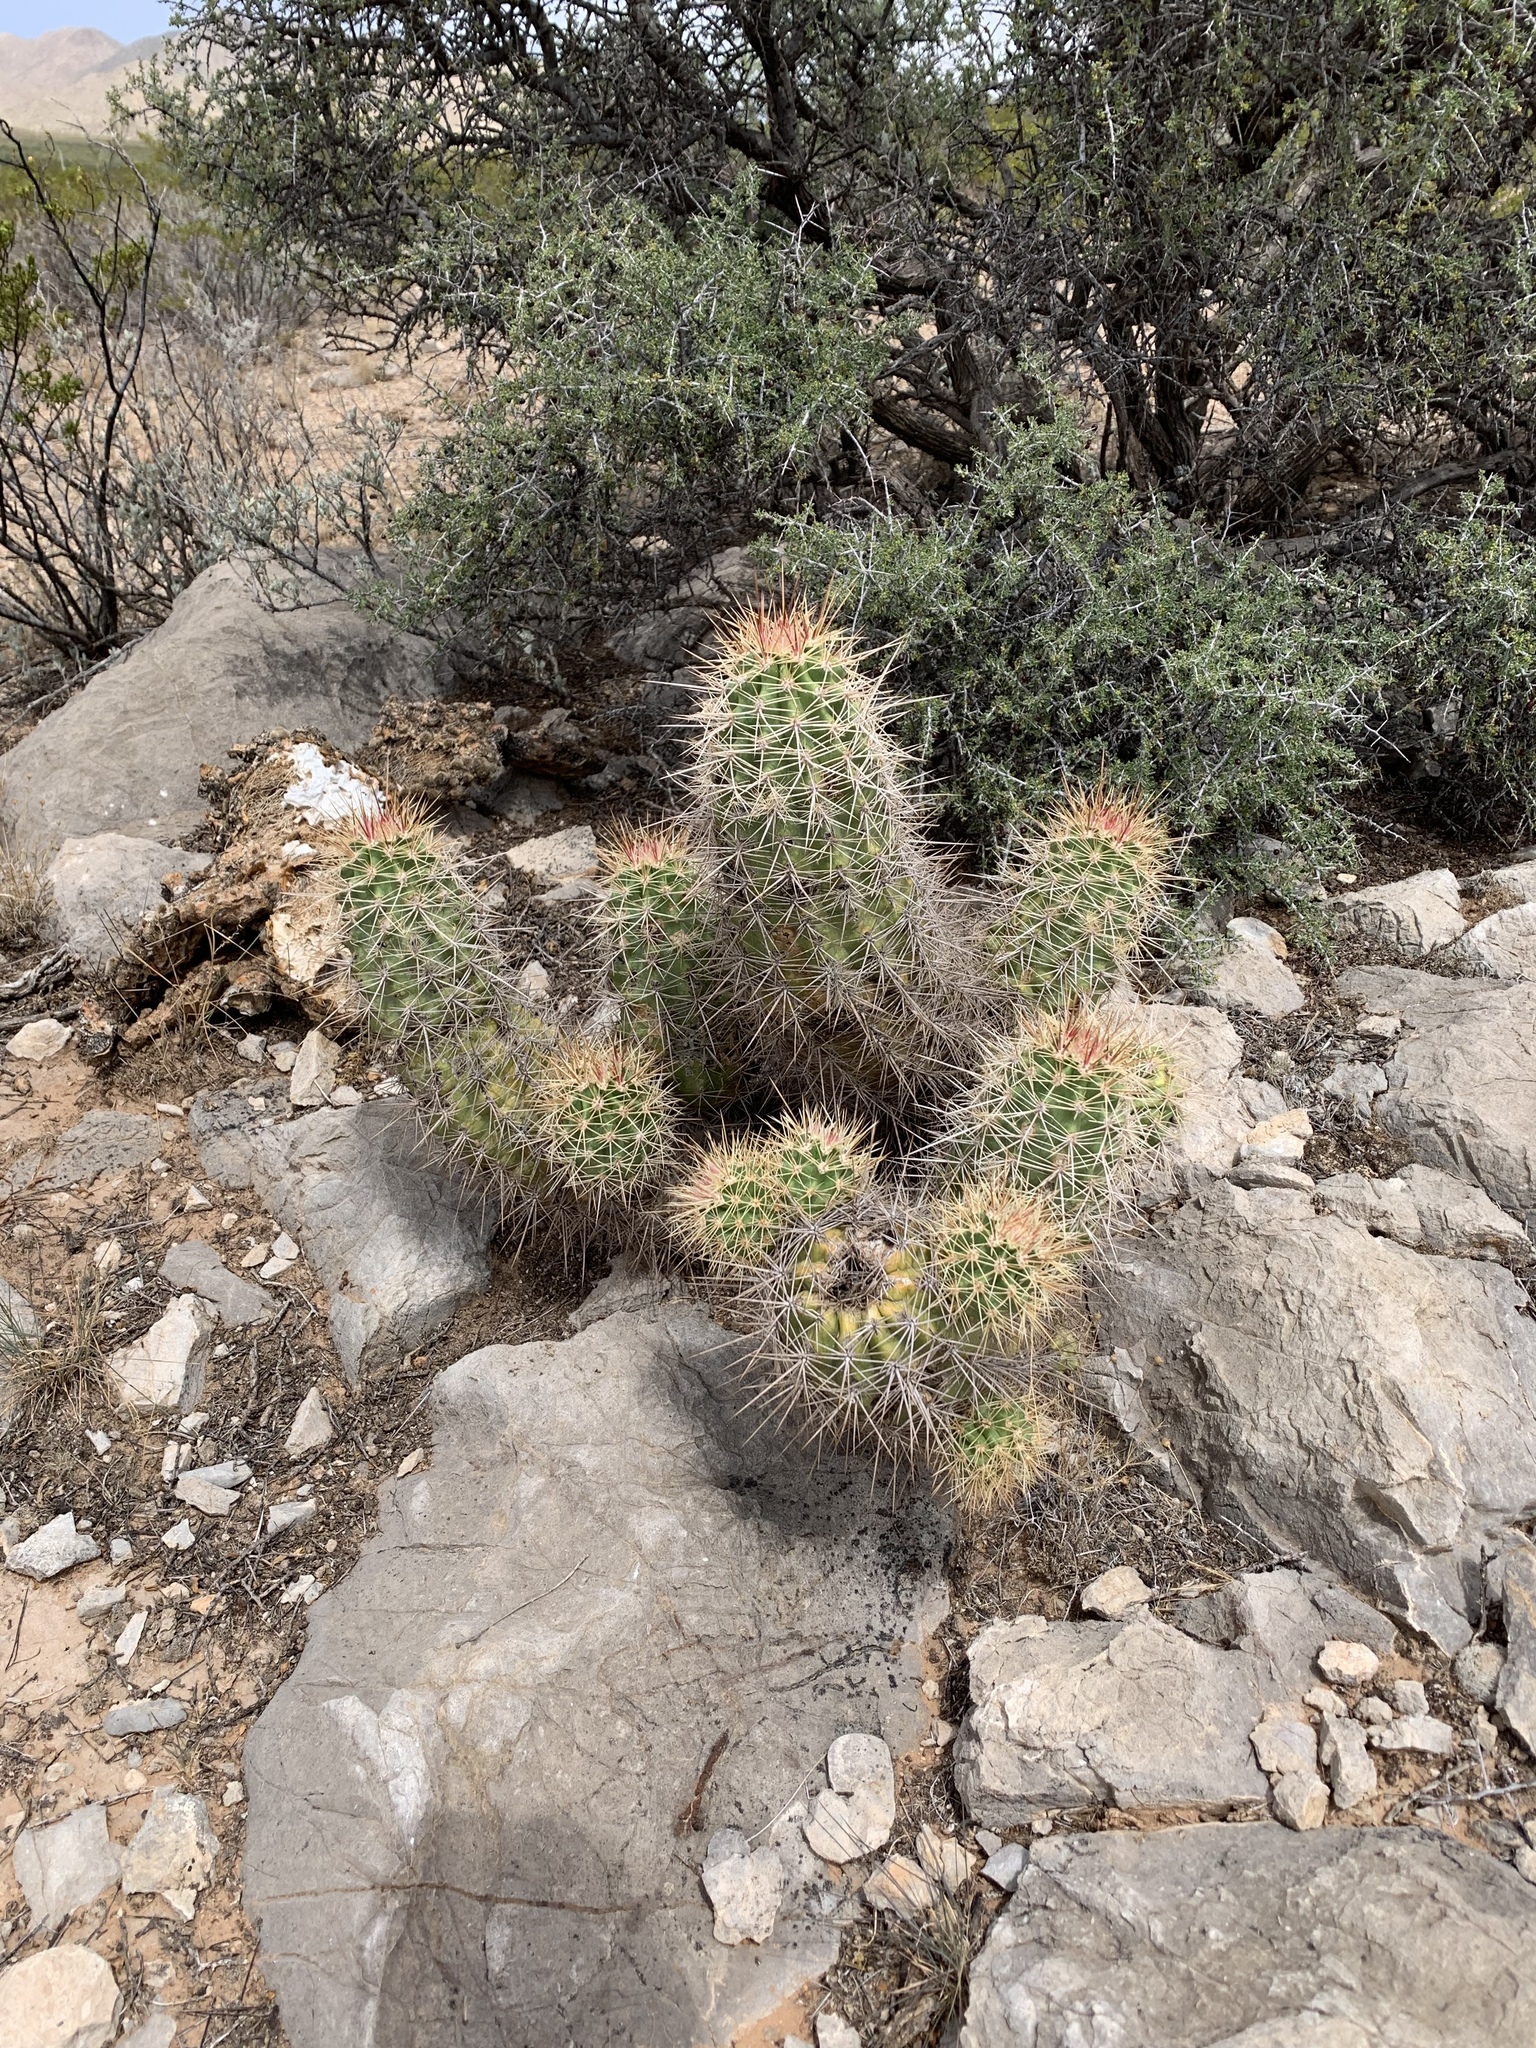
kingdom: Plantae
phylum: Tracheophyta
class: Magnoliopsida
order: Caryophyllales
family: Cactaceae
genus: Echinocereus
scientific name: Echinocereus coccineus
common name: Scarlet hedgehog cactus
